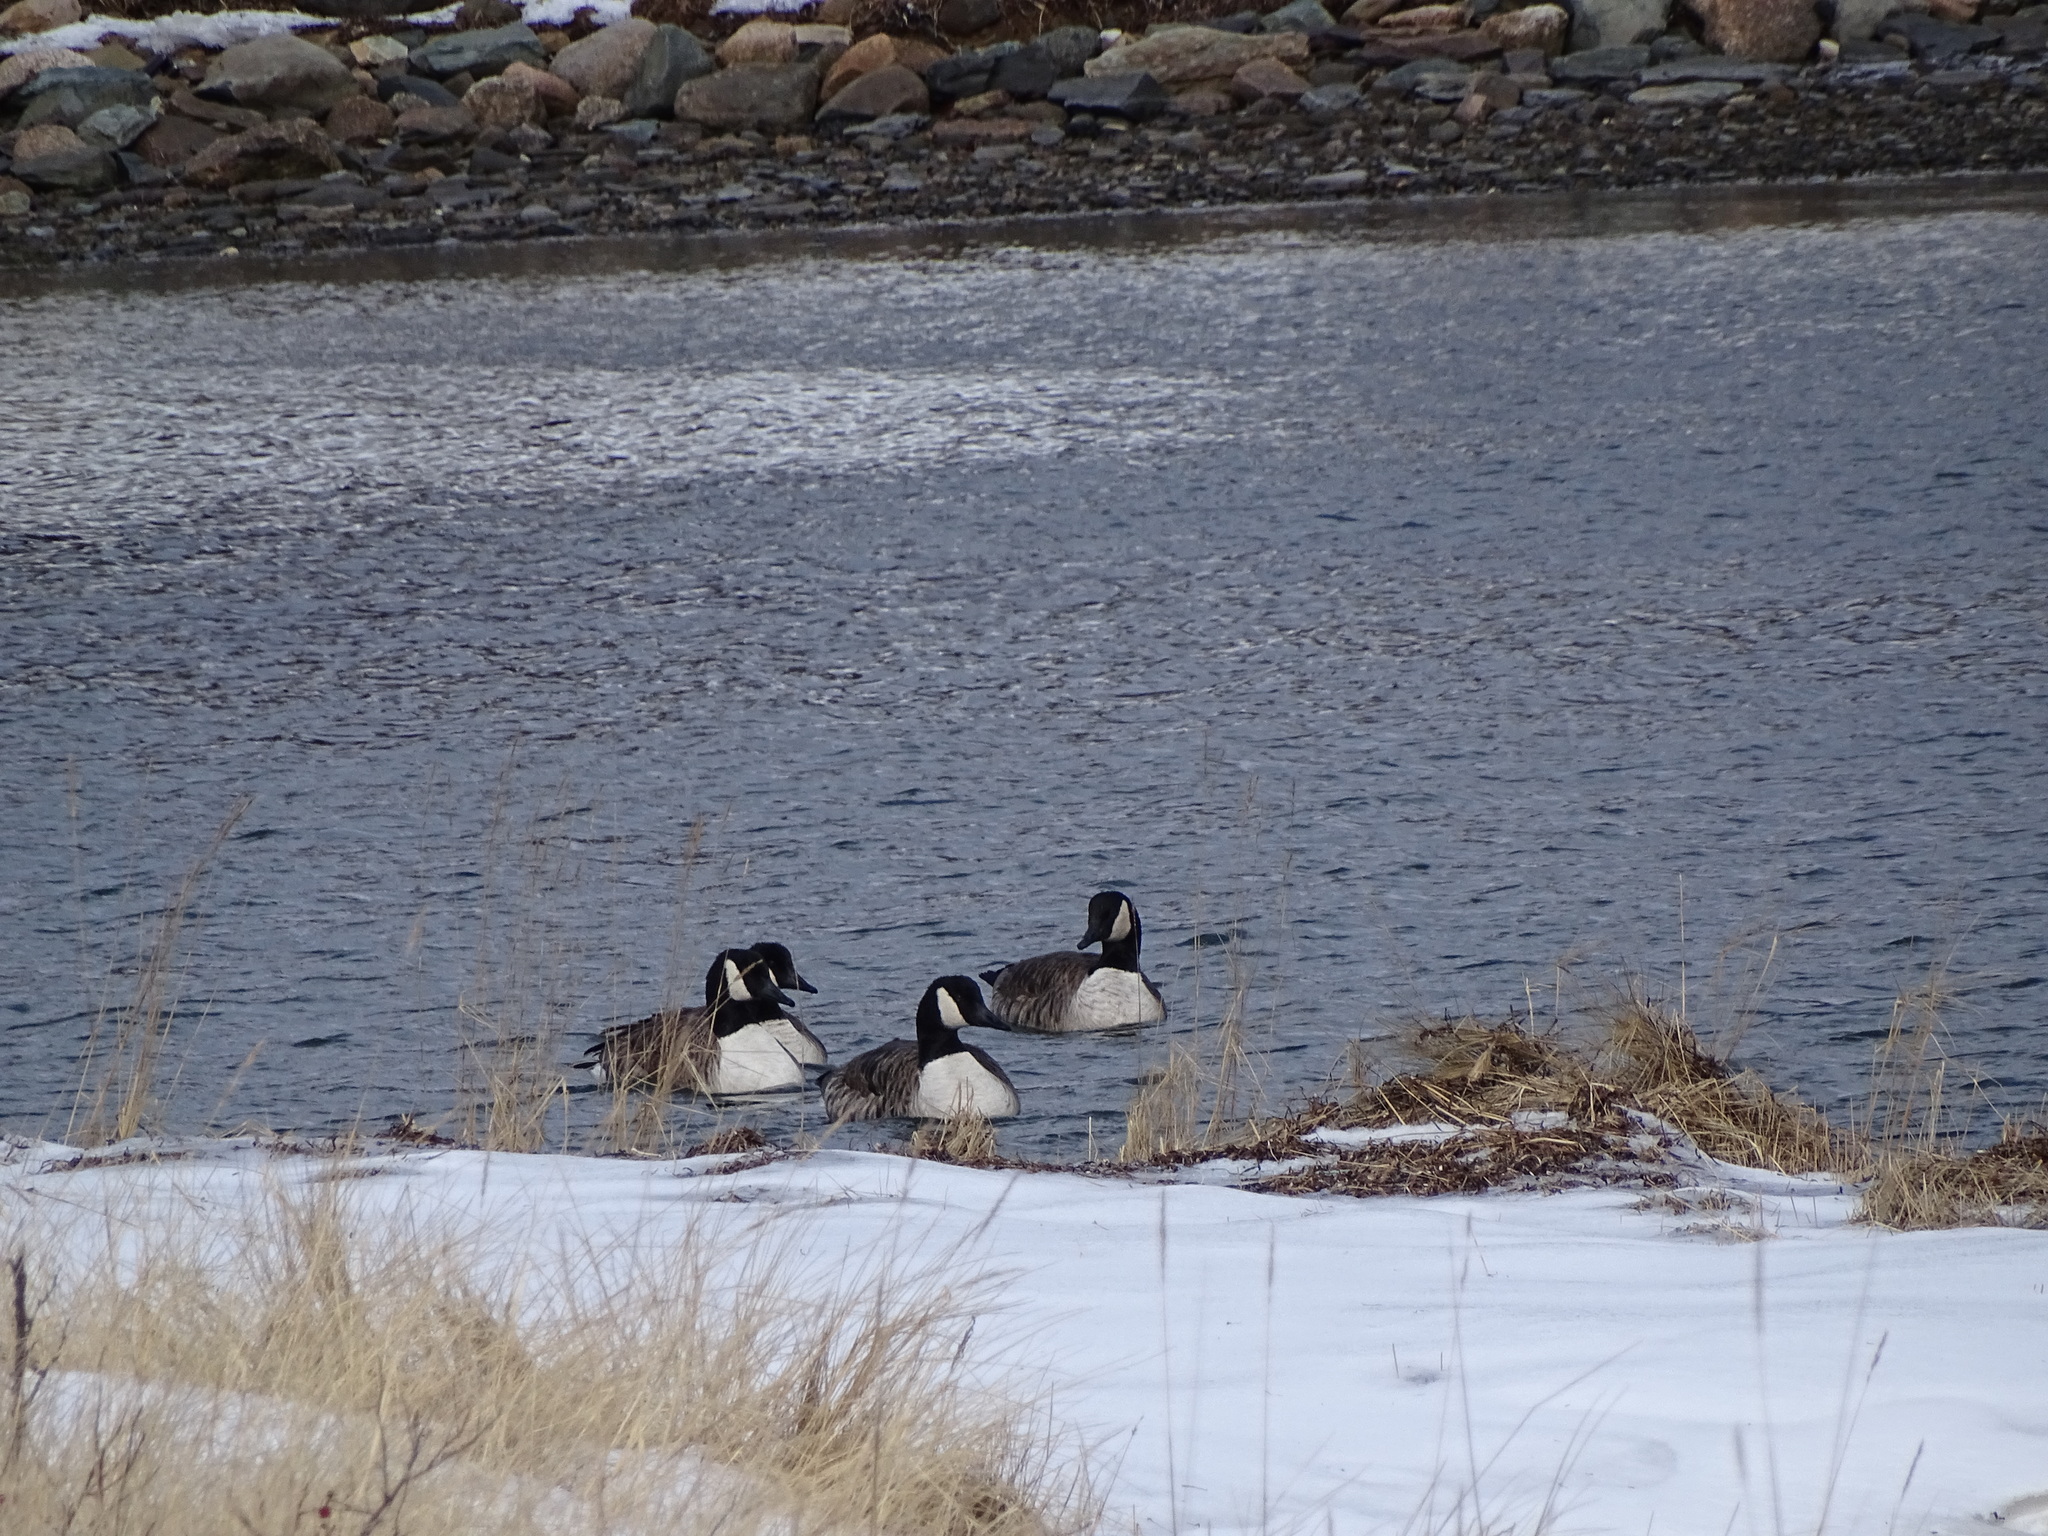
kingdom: Animalia
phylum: Chordata
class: Aves
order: Anseriformes
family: Anatidae
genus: Branta
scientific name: Branta canadensis
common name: Canada goose
